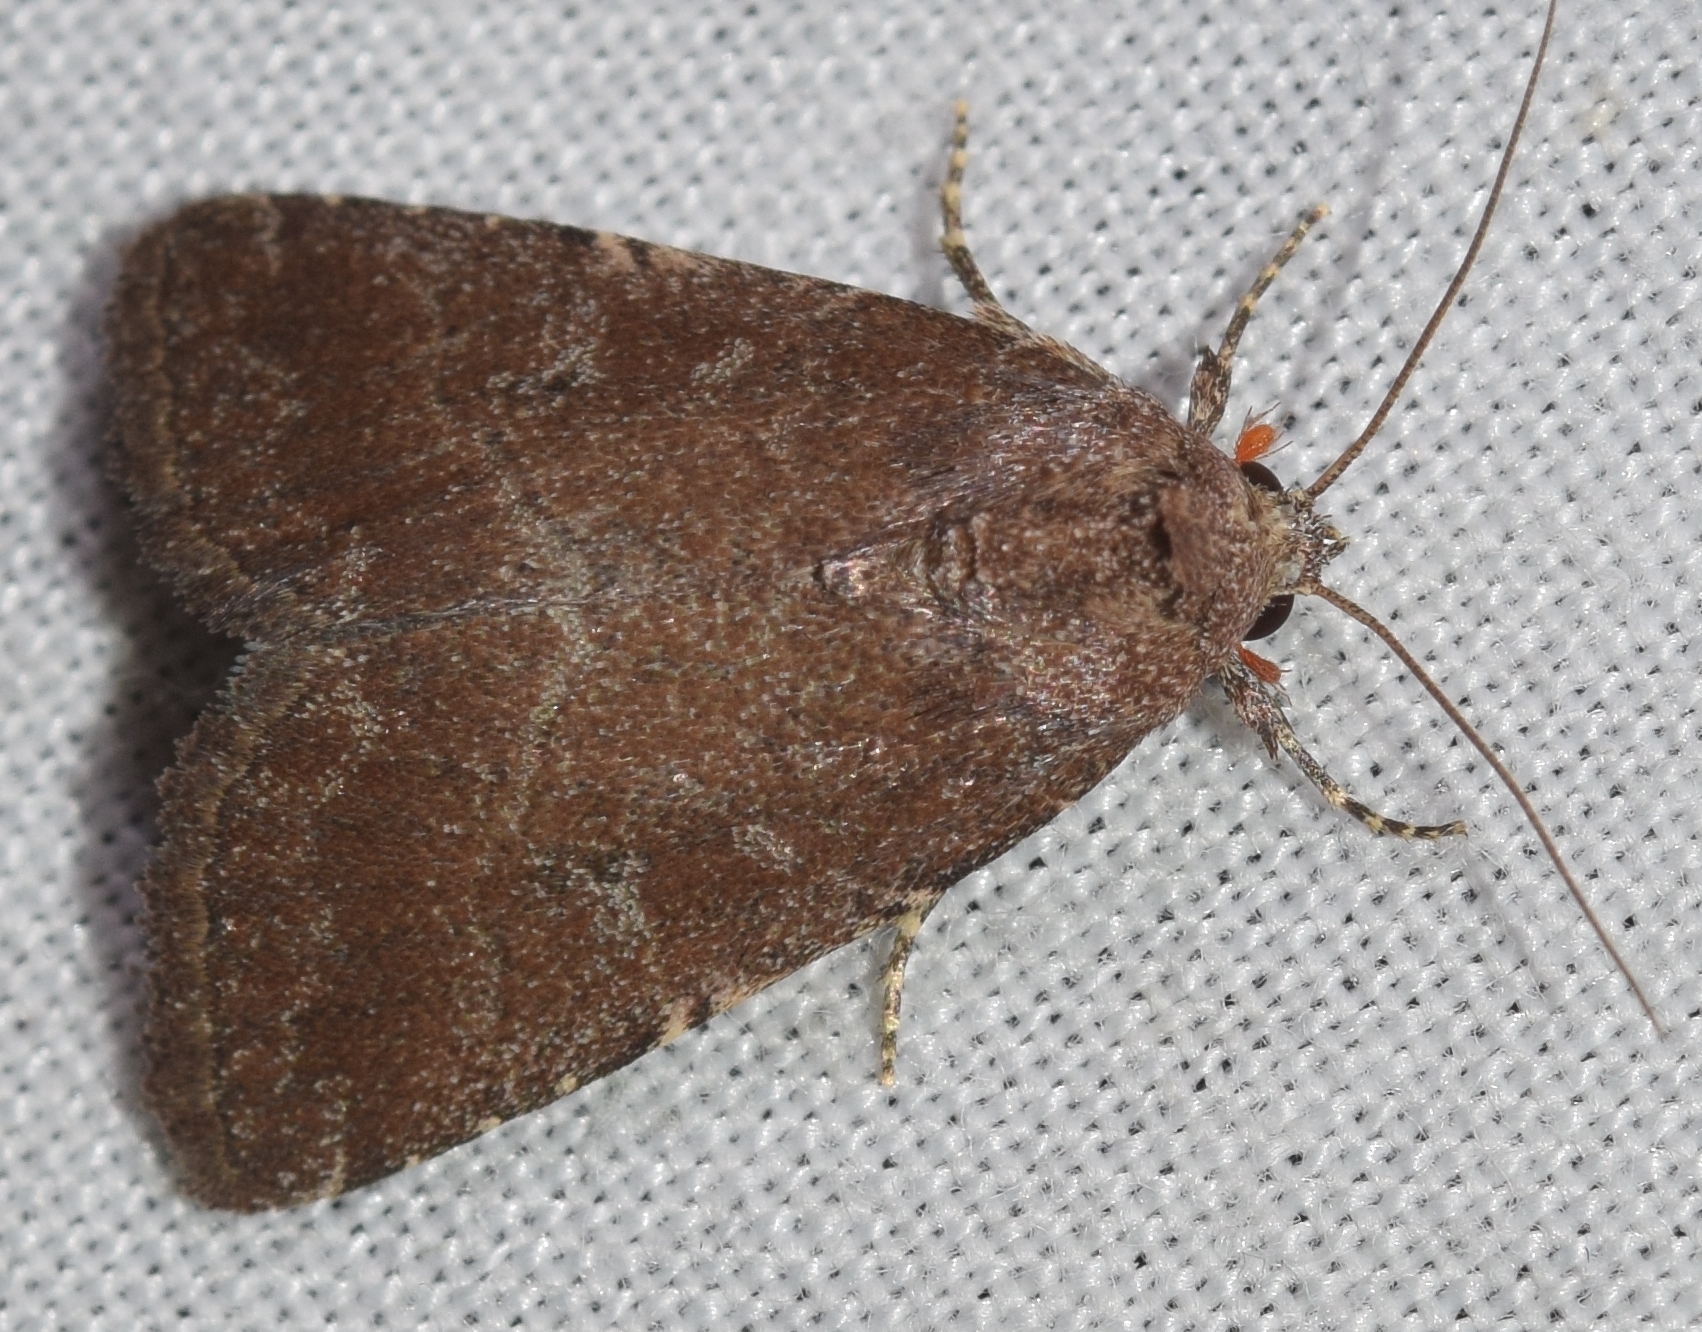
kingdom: Animalia
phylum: Arthropoda
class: Insecta
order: Lepidoptera
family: Noctuidae
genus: Condica
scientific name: Condica viscosa
